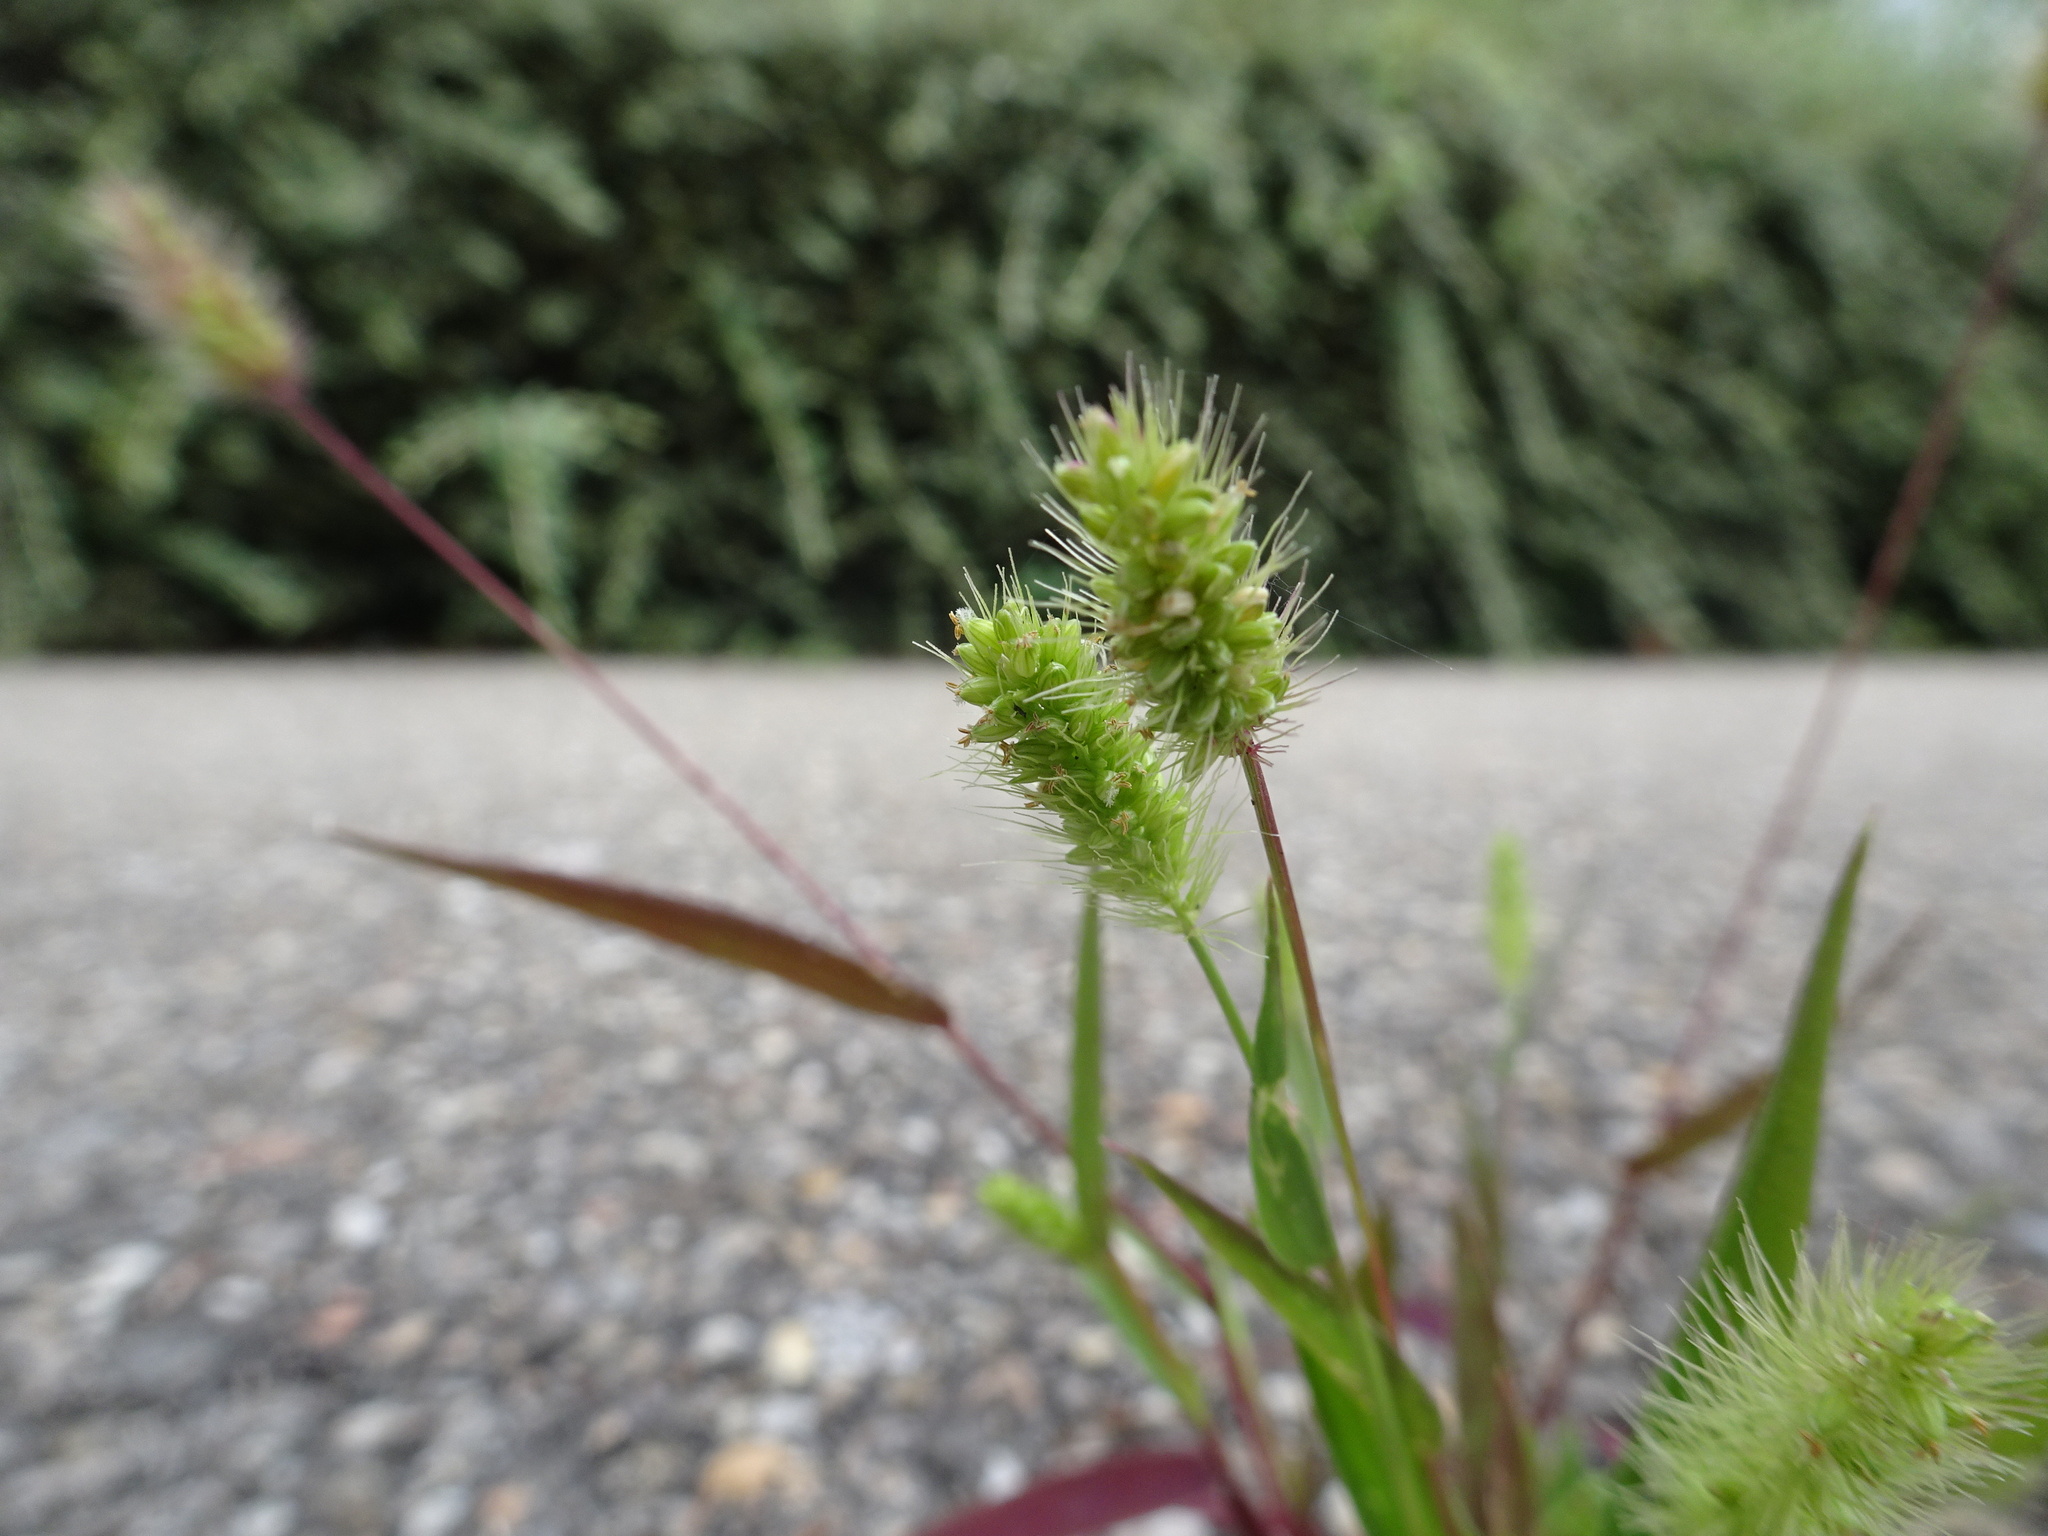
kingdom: Plantae
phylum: Tracheophyta
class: Liliopsida
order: Poales
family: Poaceae
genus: Setaria
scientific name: Setaria viridis
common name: Green bristlegrass
